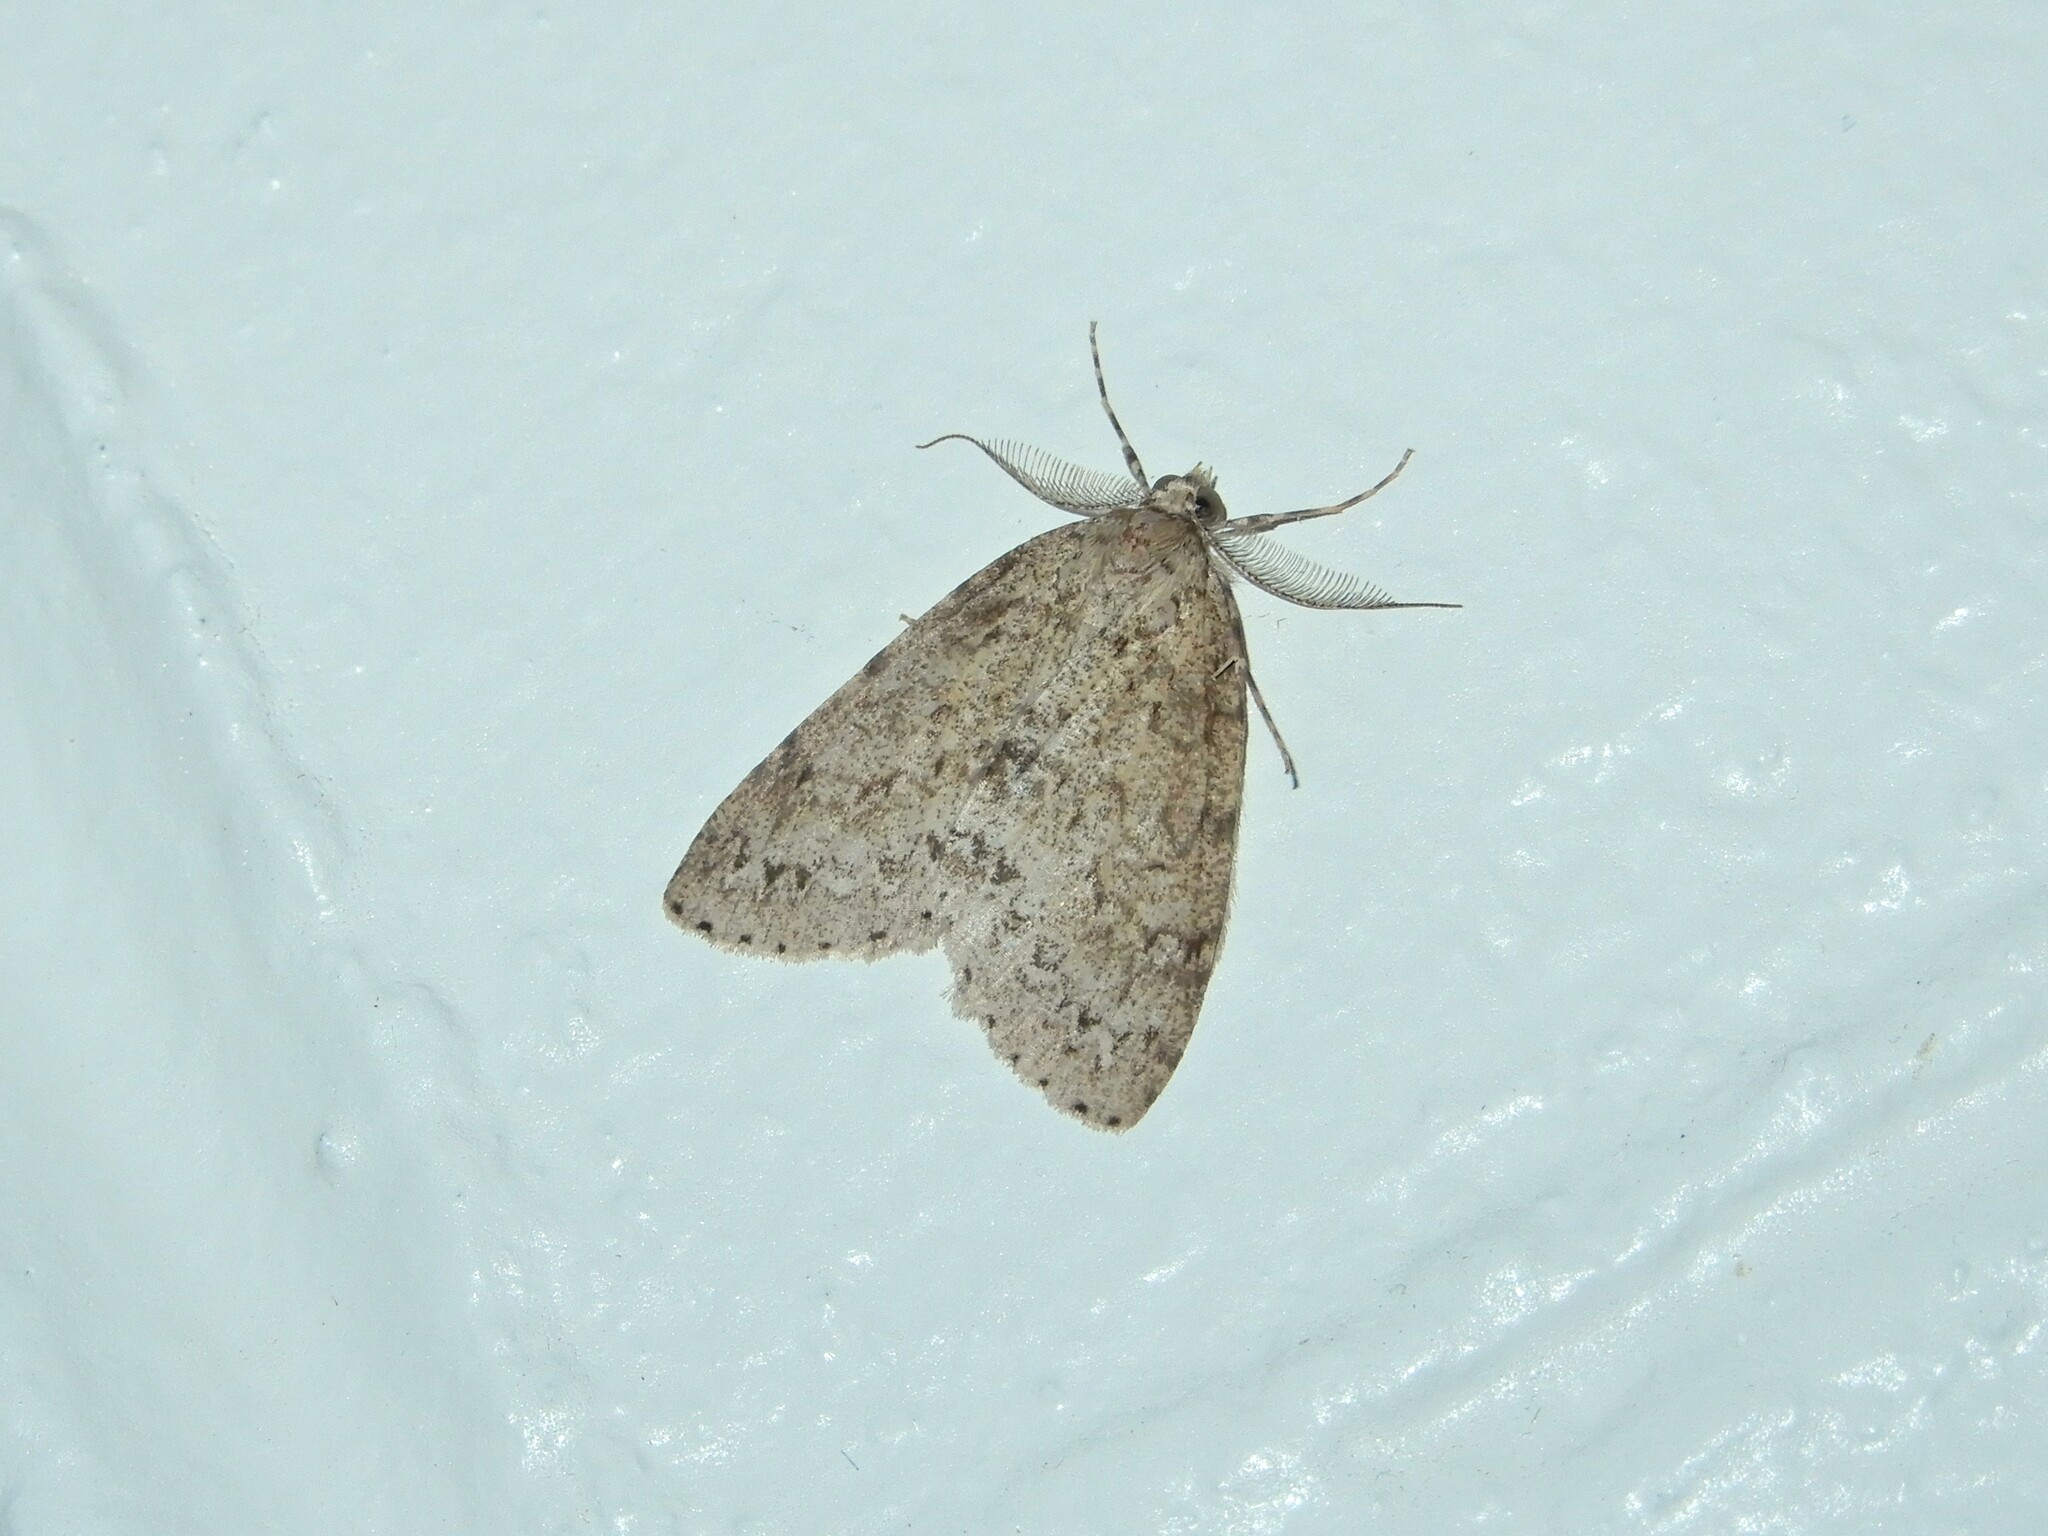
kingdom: Animalia
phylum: Arthropoda
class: Insecta
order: Lepidoptera
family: Geometridae
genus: Pseudocoremia
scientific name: Pseudocoremia fenerata
